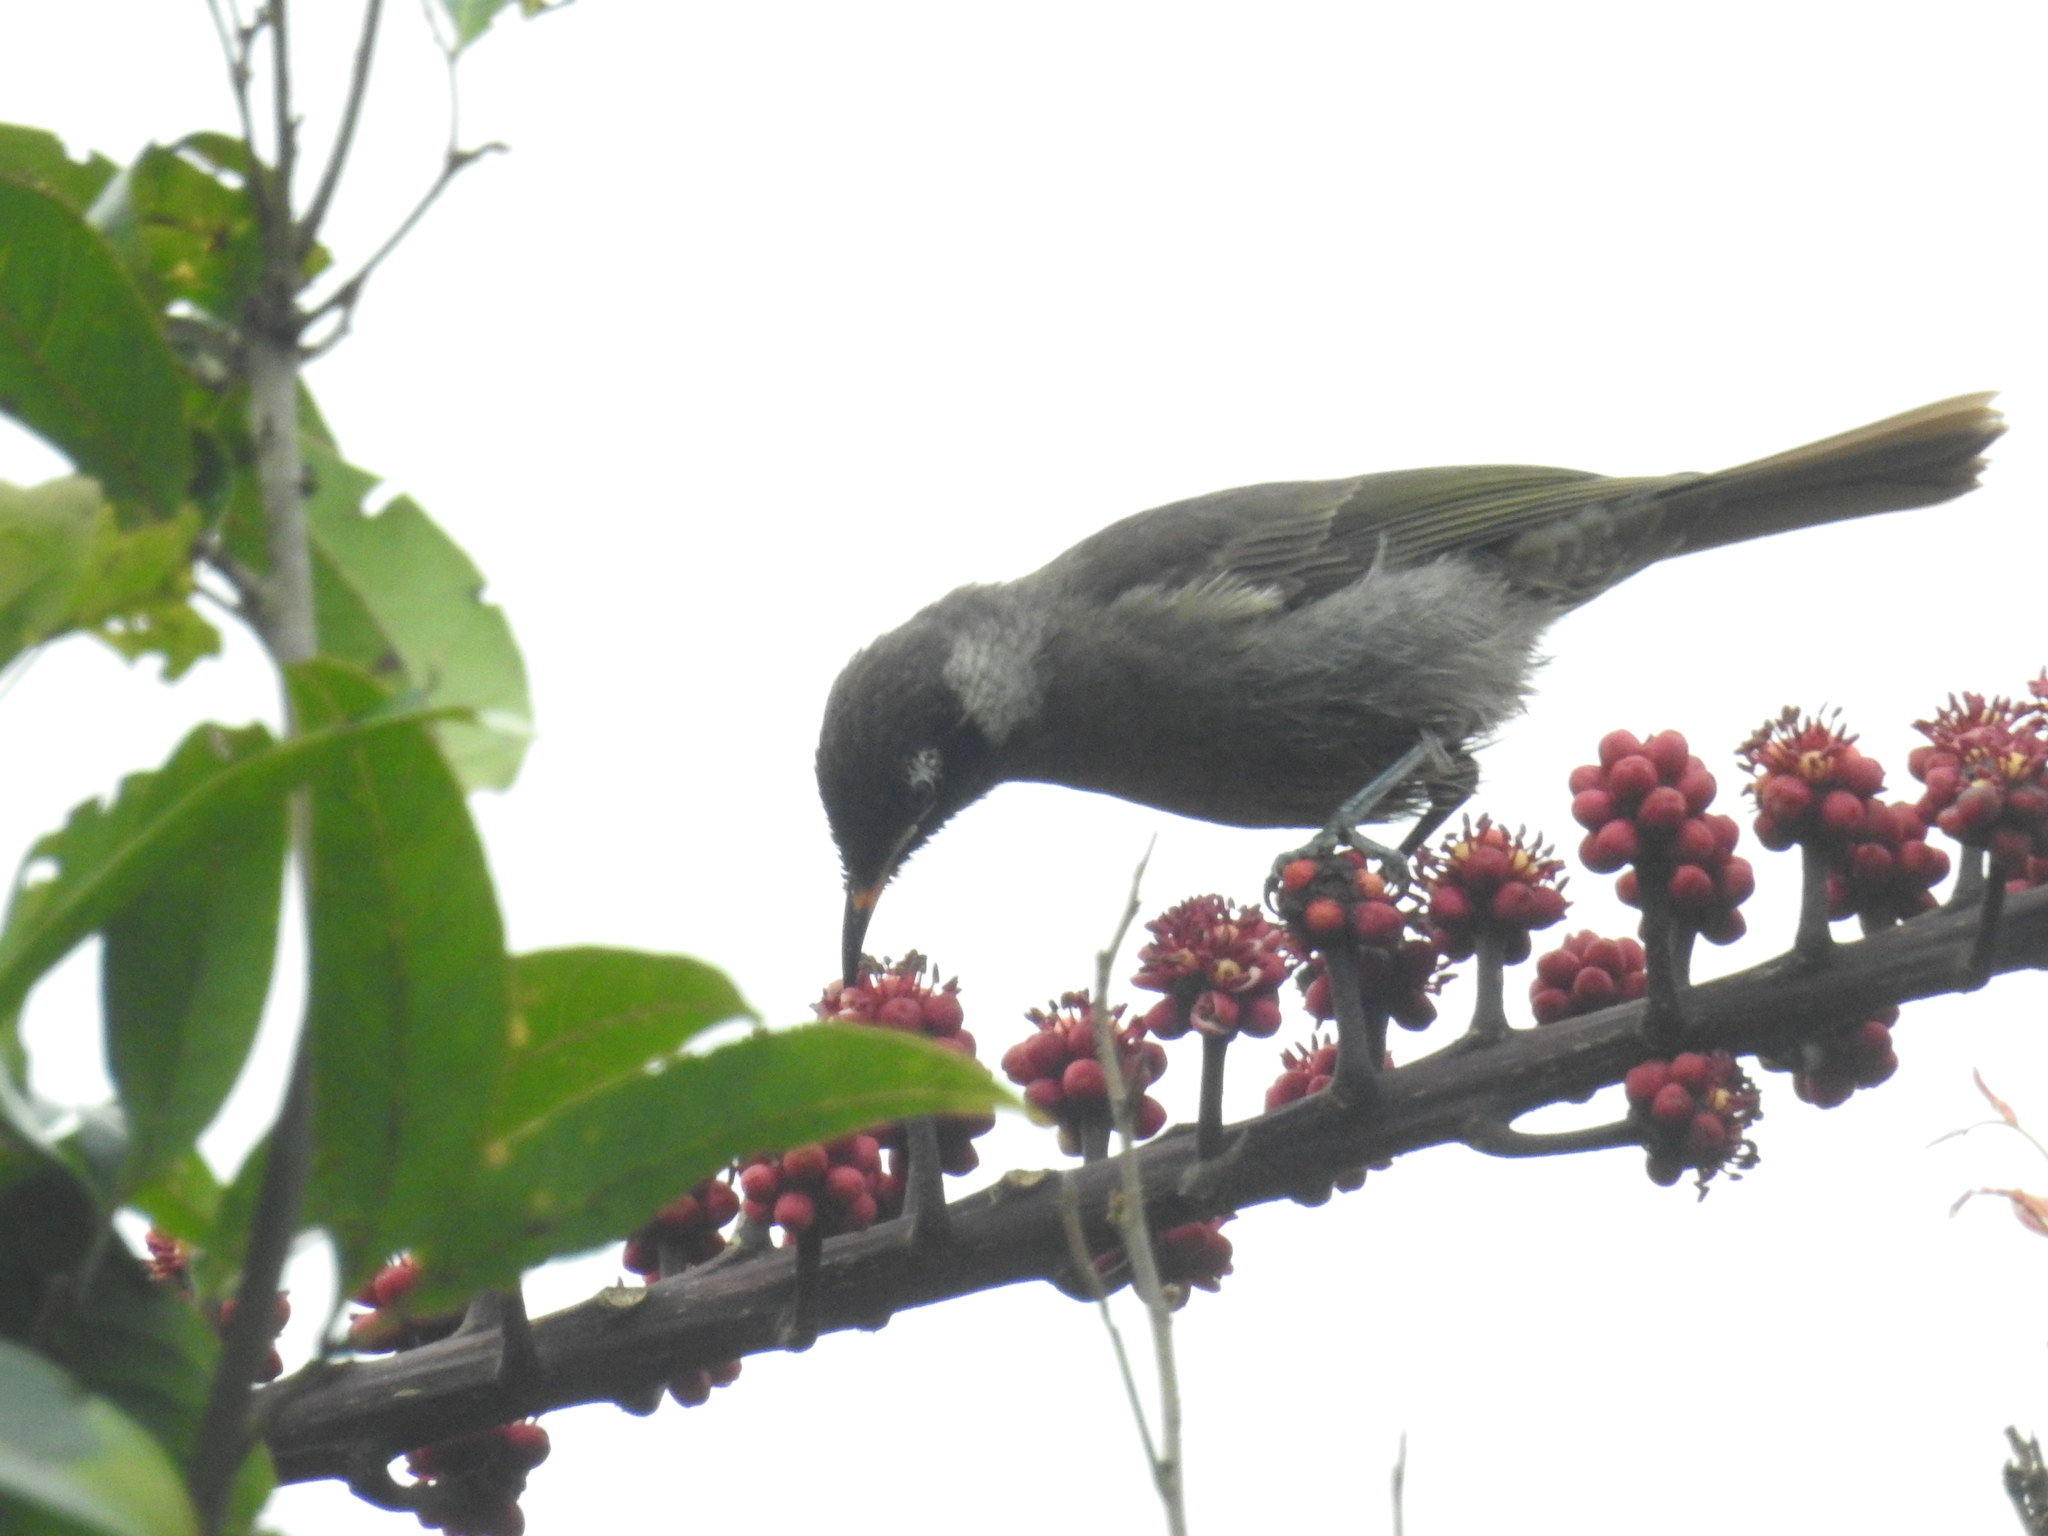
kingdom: Animalia
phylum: Chordata
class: Aves
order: Passeriformes
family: Meliphagidae
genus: Bolemoreus
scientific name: Bolemoreus frenatus
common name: Bridled honeyeater
